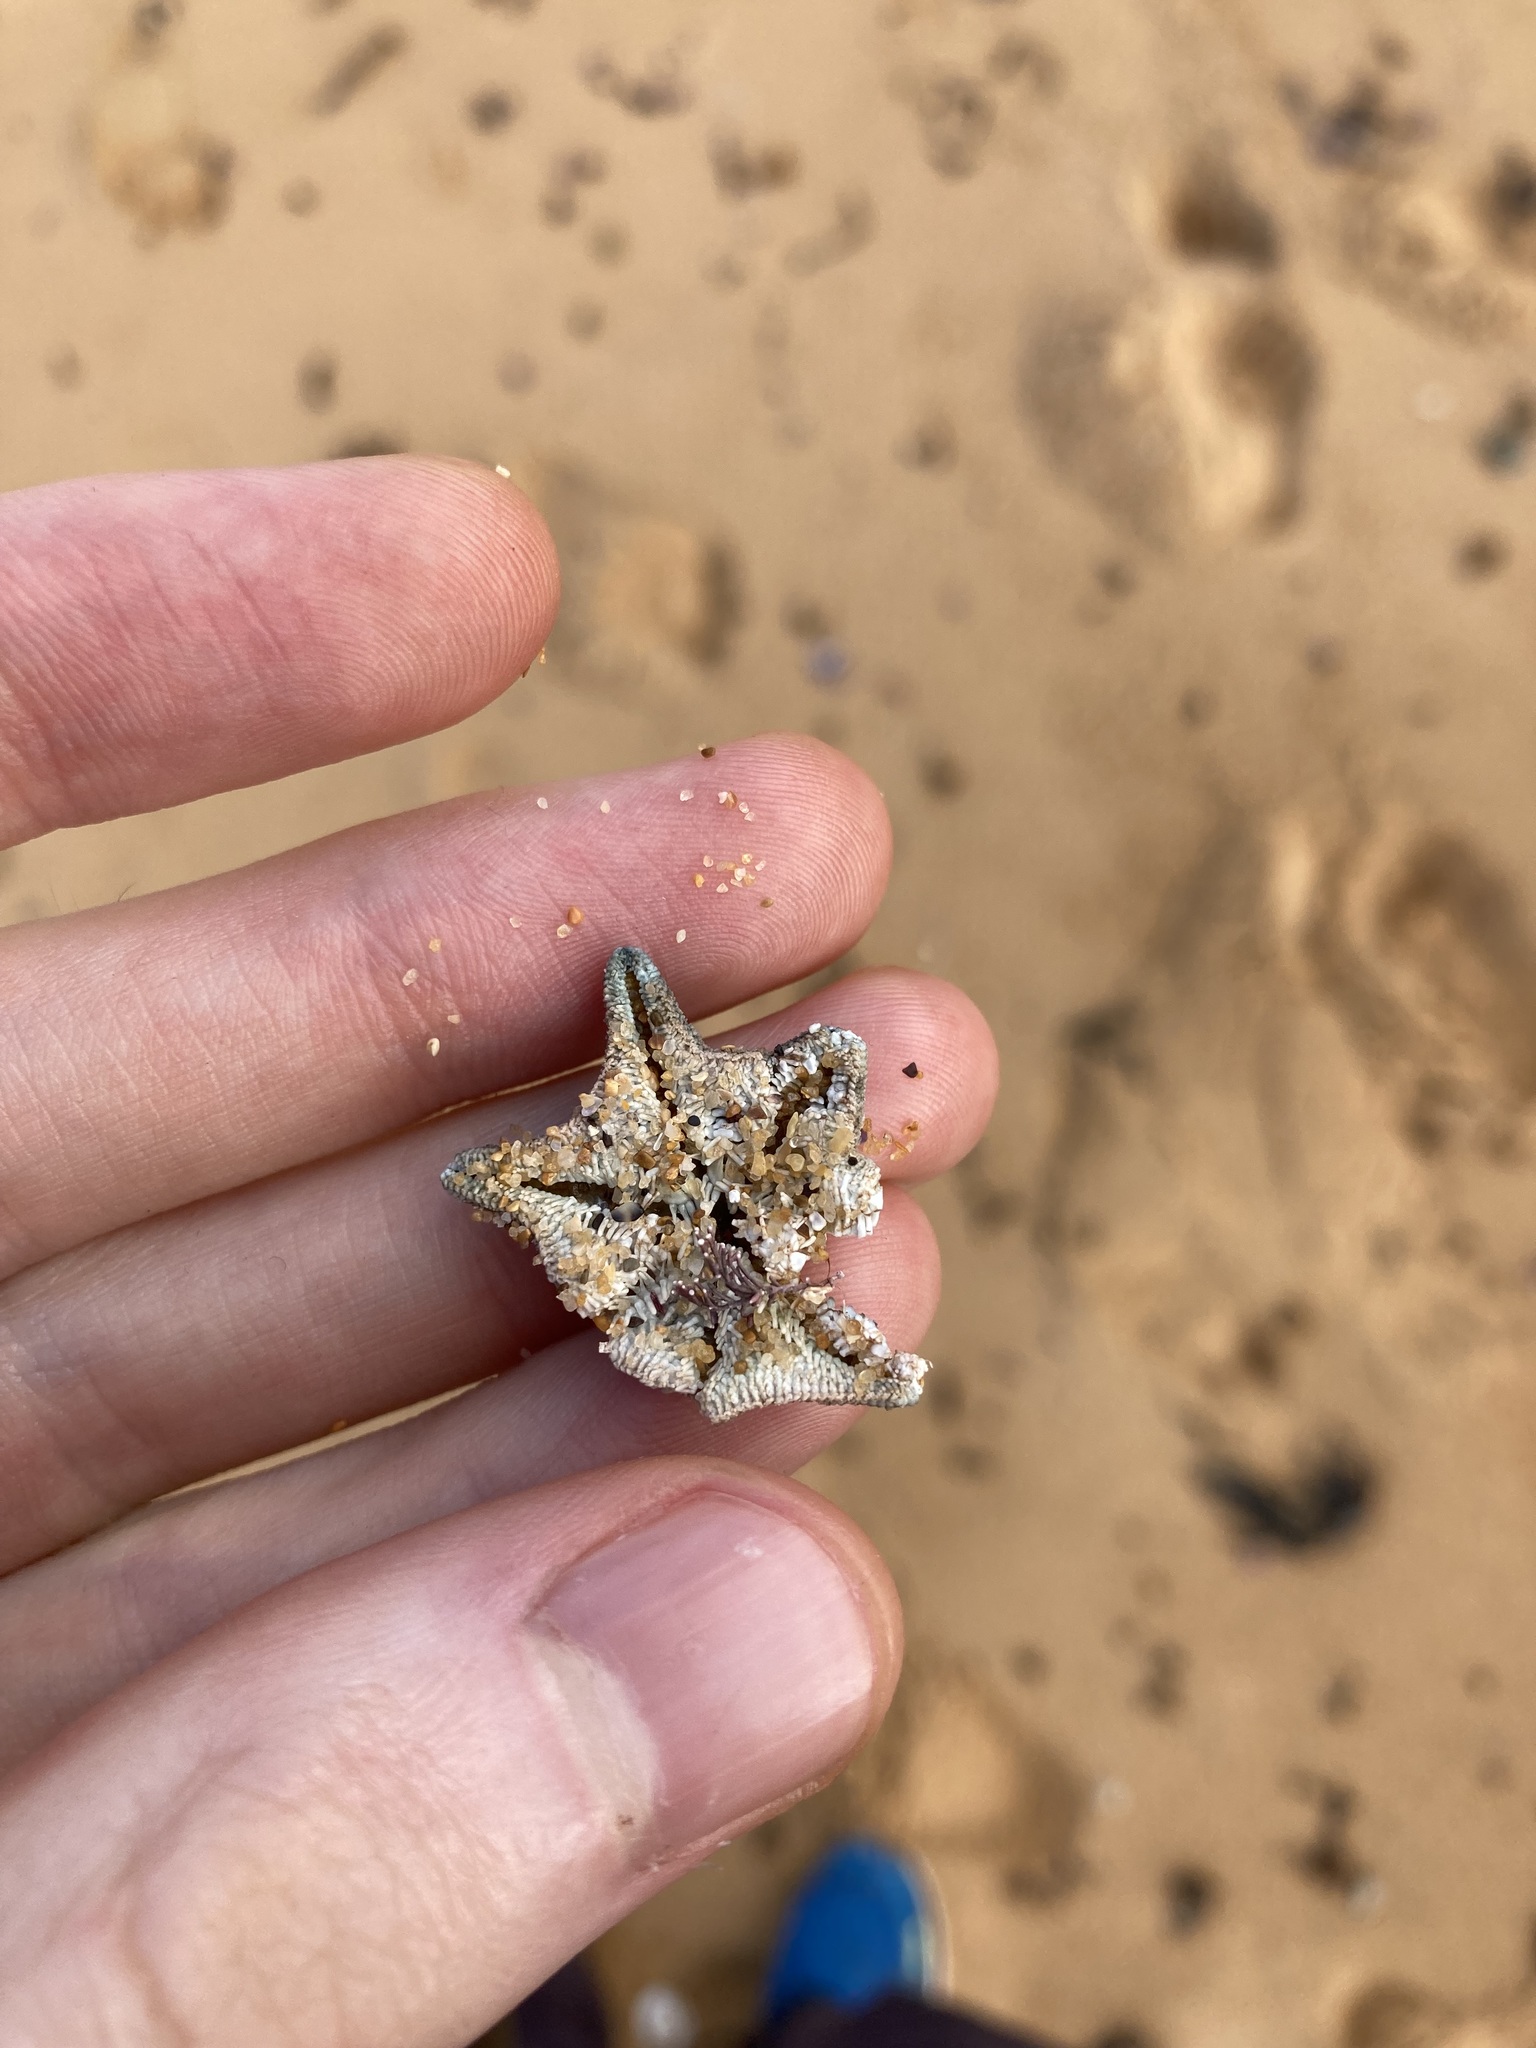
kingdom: Animalia
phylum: Echinodermata
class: Asteroidea
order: Valvatida
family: Asterinidae
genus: Meridiastra
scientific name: Meridiastra calcar
